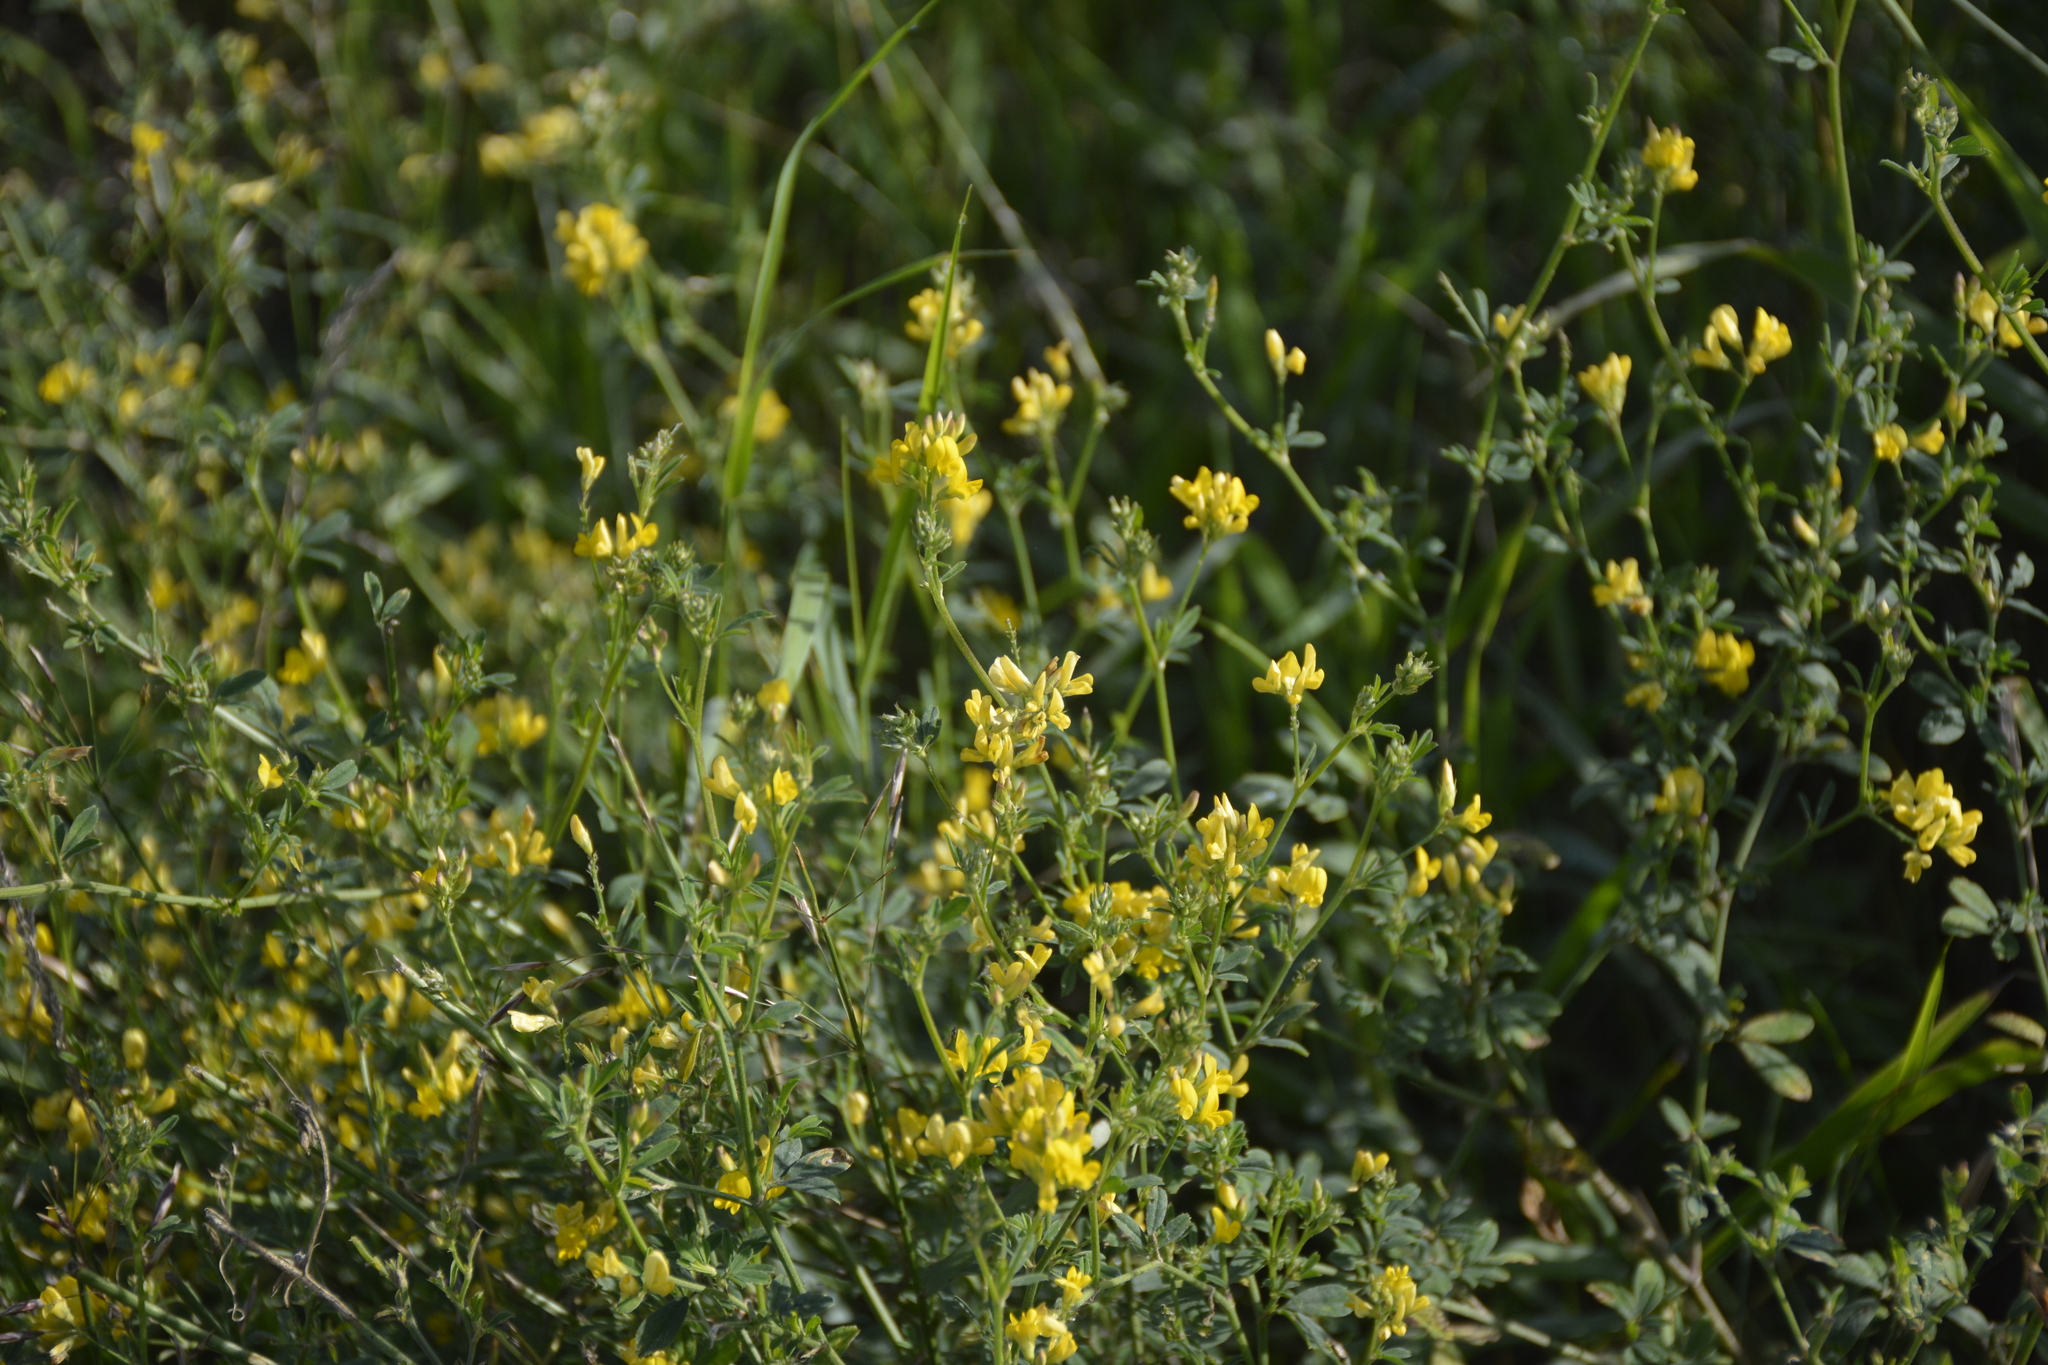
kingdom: Plantae
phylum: Tracheophyta
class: Magnoliopsida
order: Fabales
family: Fabaceae
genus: Medicago
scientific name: Medicago falcata
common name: Sickle medick
